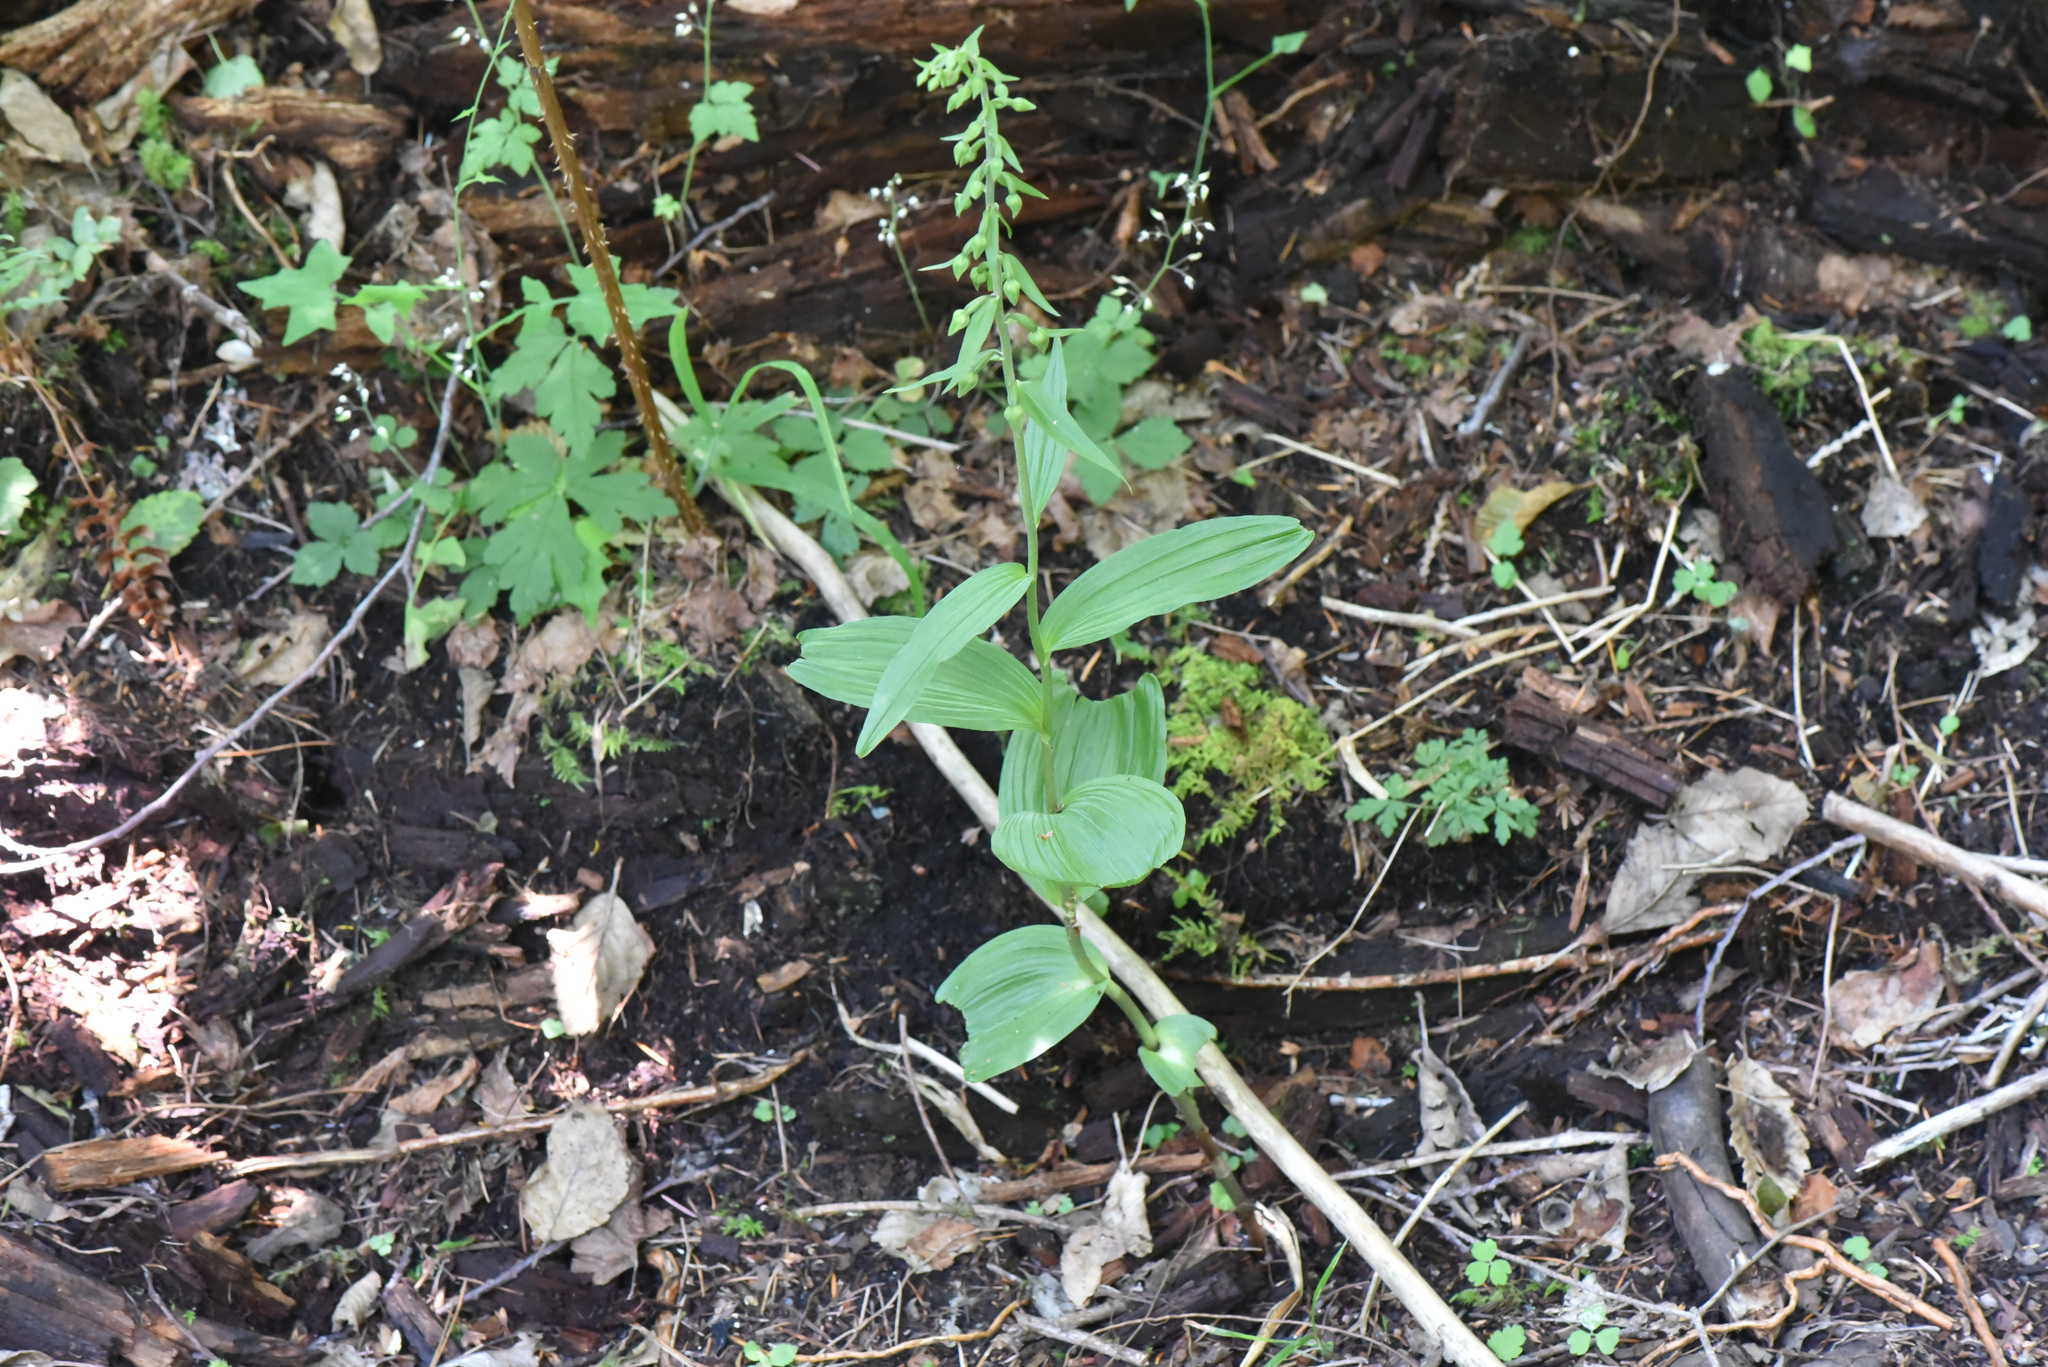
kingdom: Plantae
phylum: Tracheophyta
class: Liliopsida
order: Asparagales
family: Orchidaceae
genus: Epipactis
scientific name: Epipactis helleborine
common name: Broad-leaved helleborine
